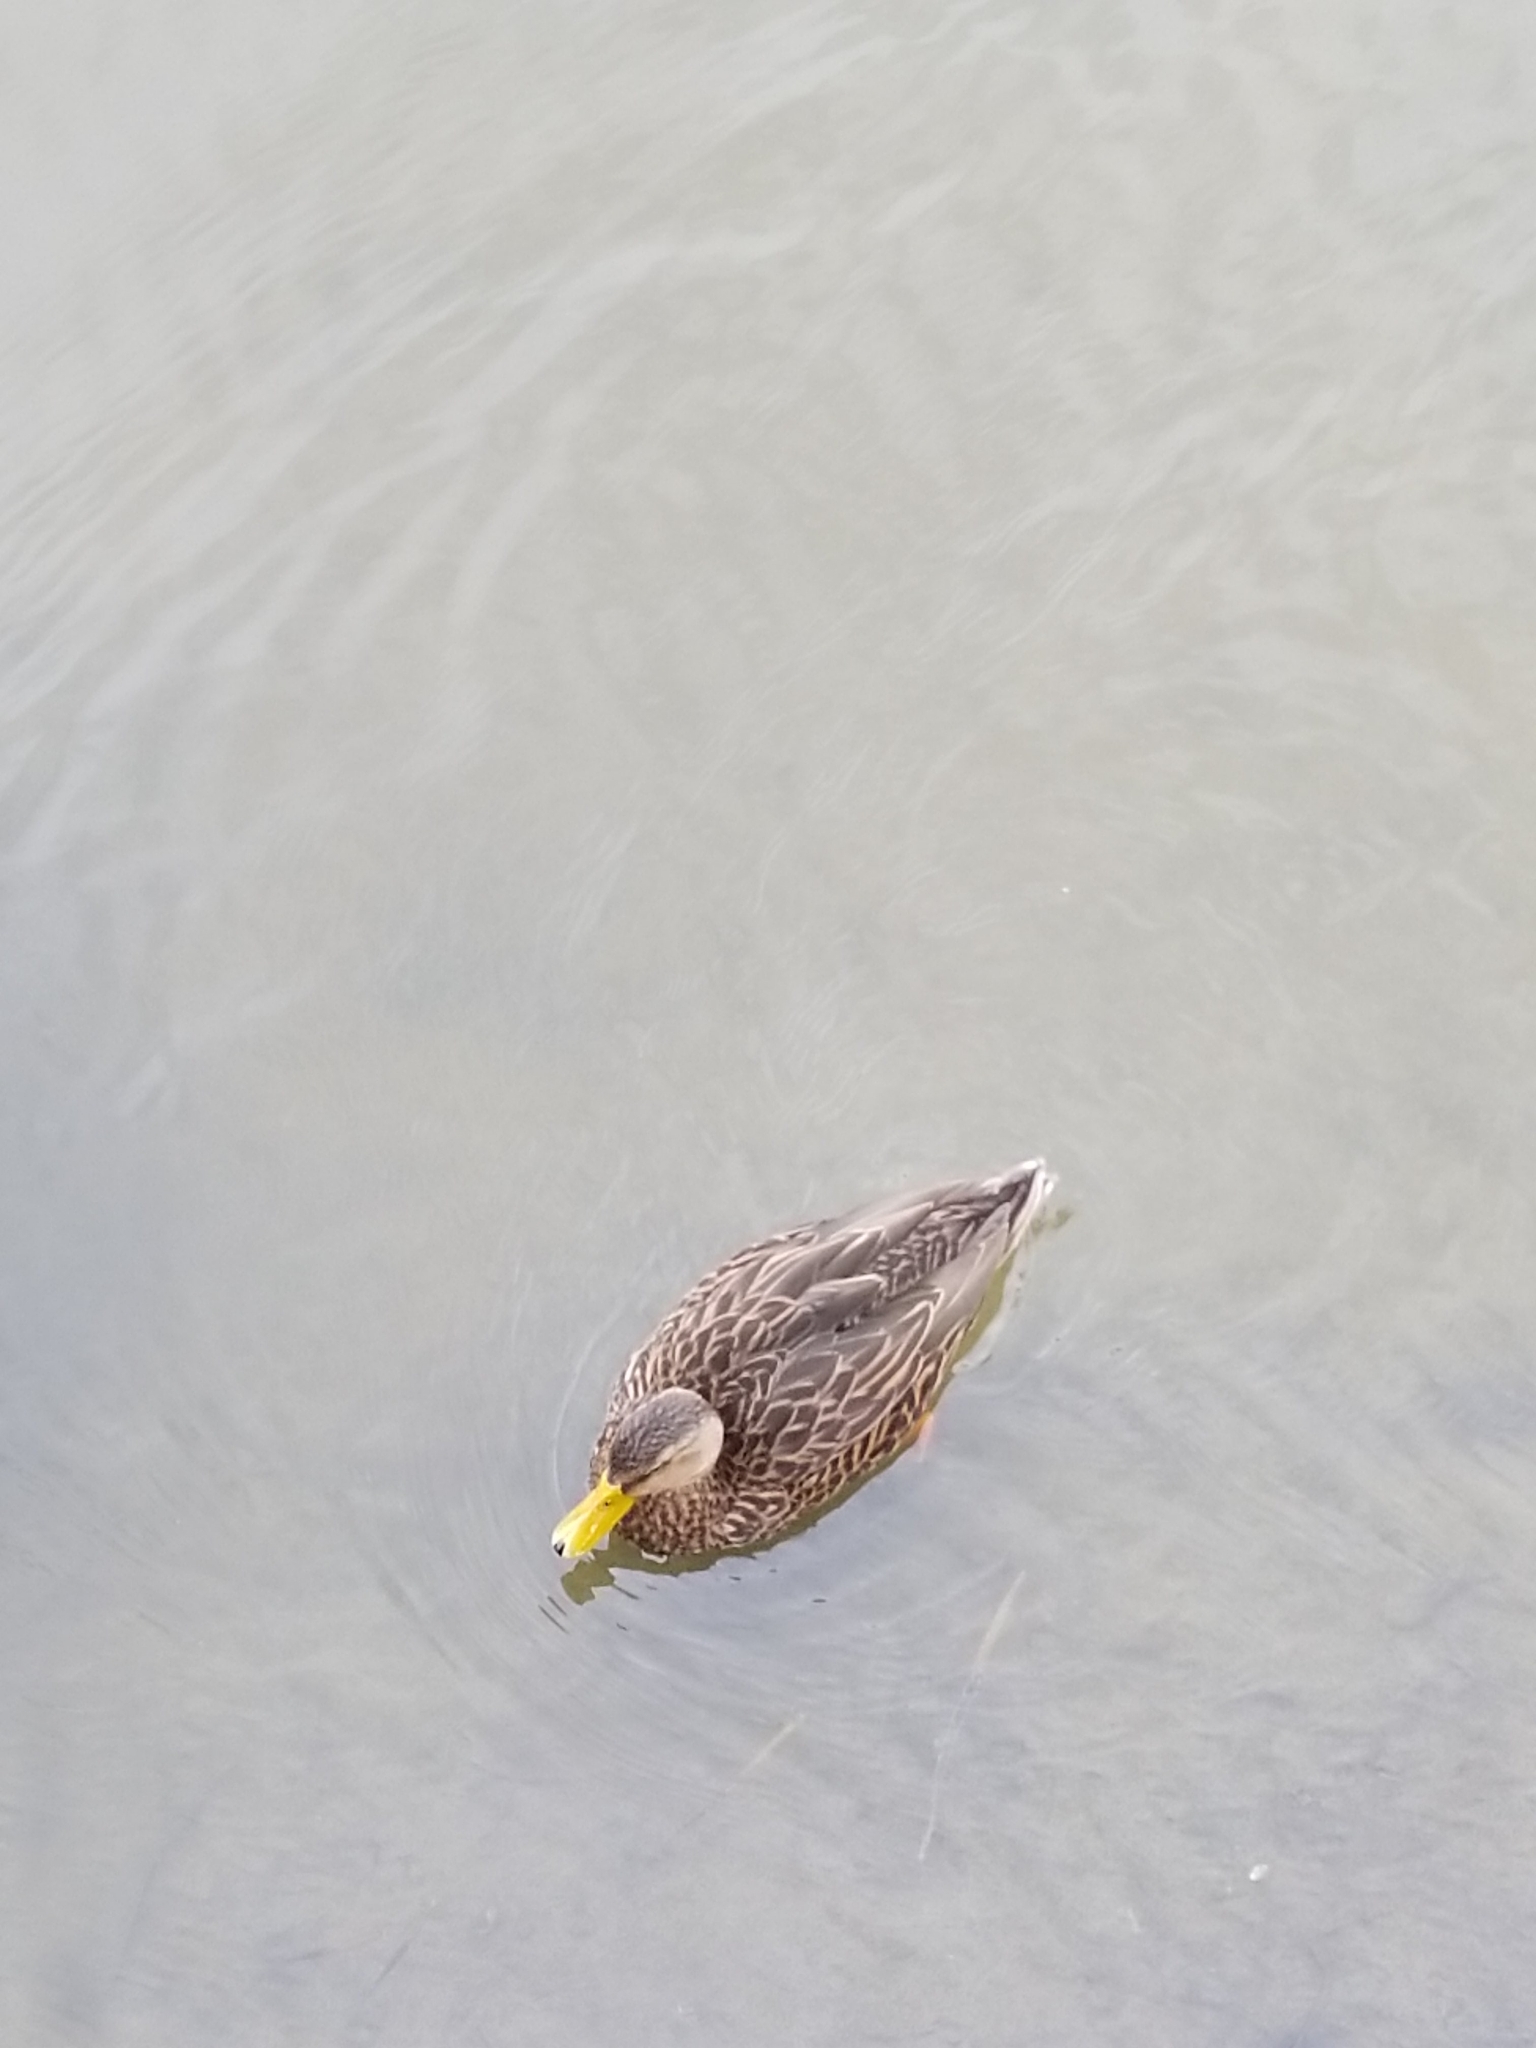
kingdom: Animalia
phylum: Chordata
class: Aves
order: Anseriformes
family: Anatidae
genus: Anas
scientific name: Anas fulvigula
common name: Mottled duck
